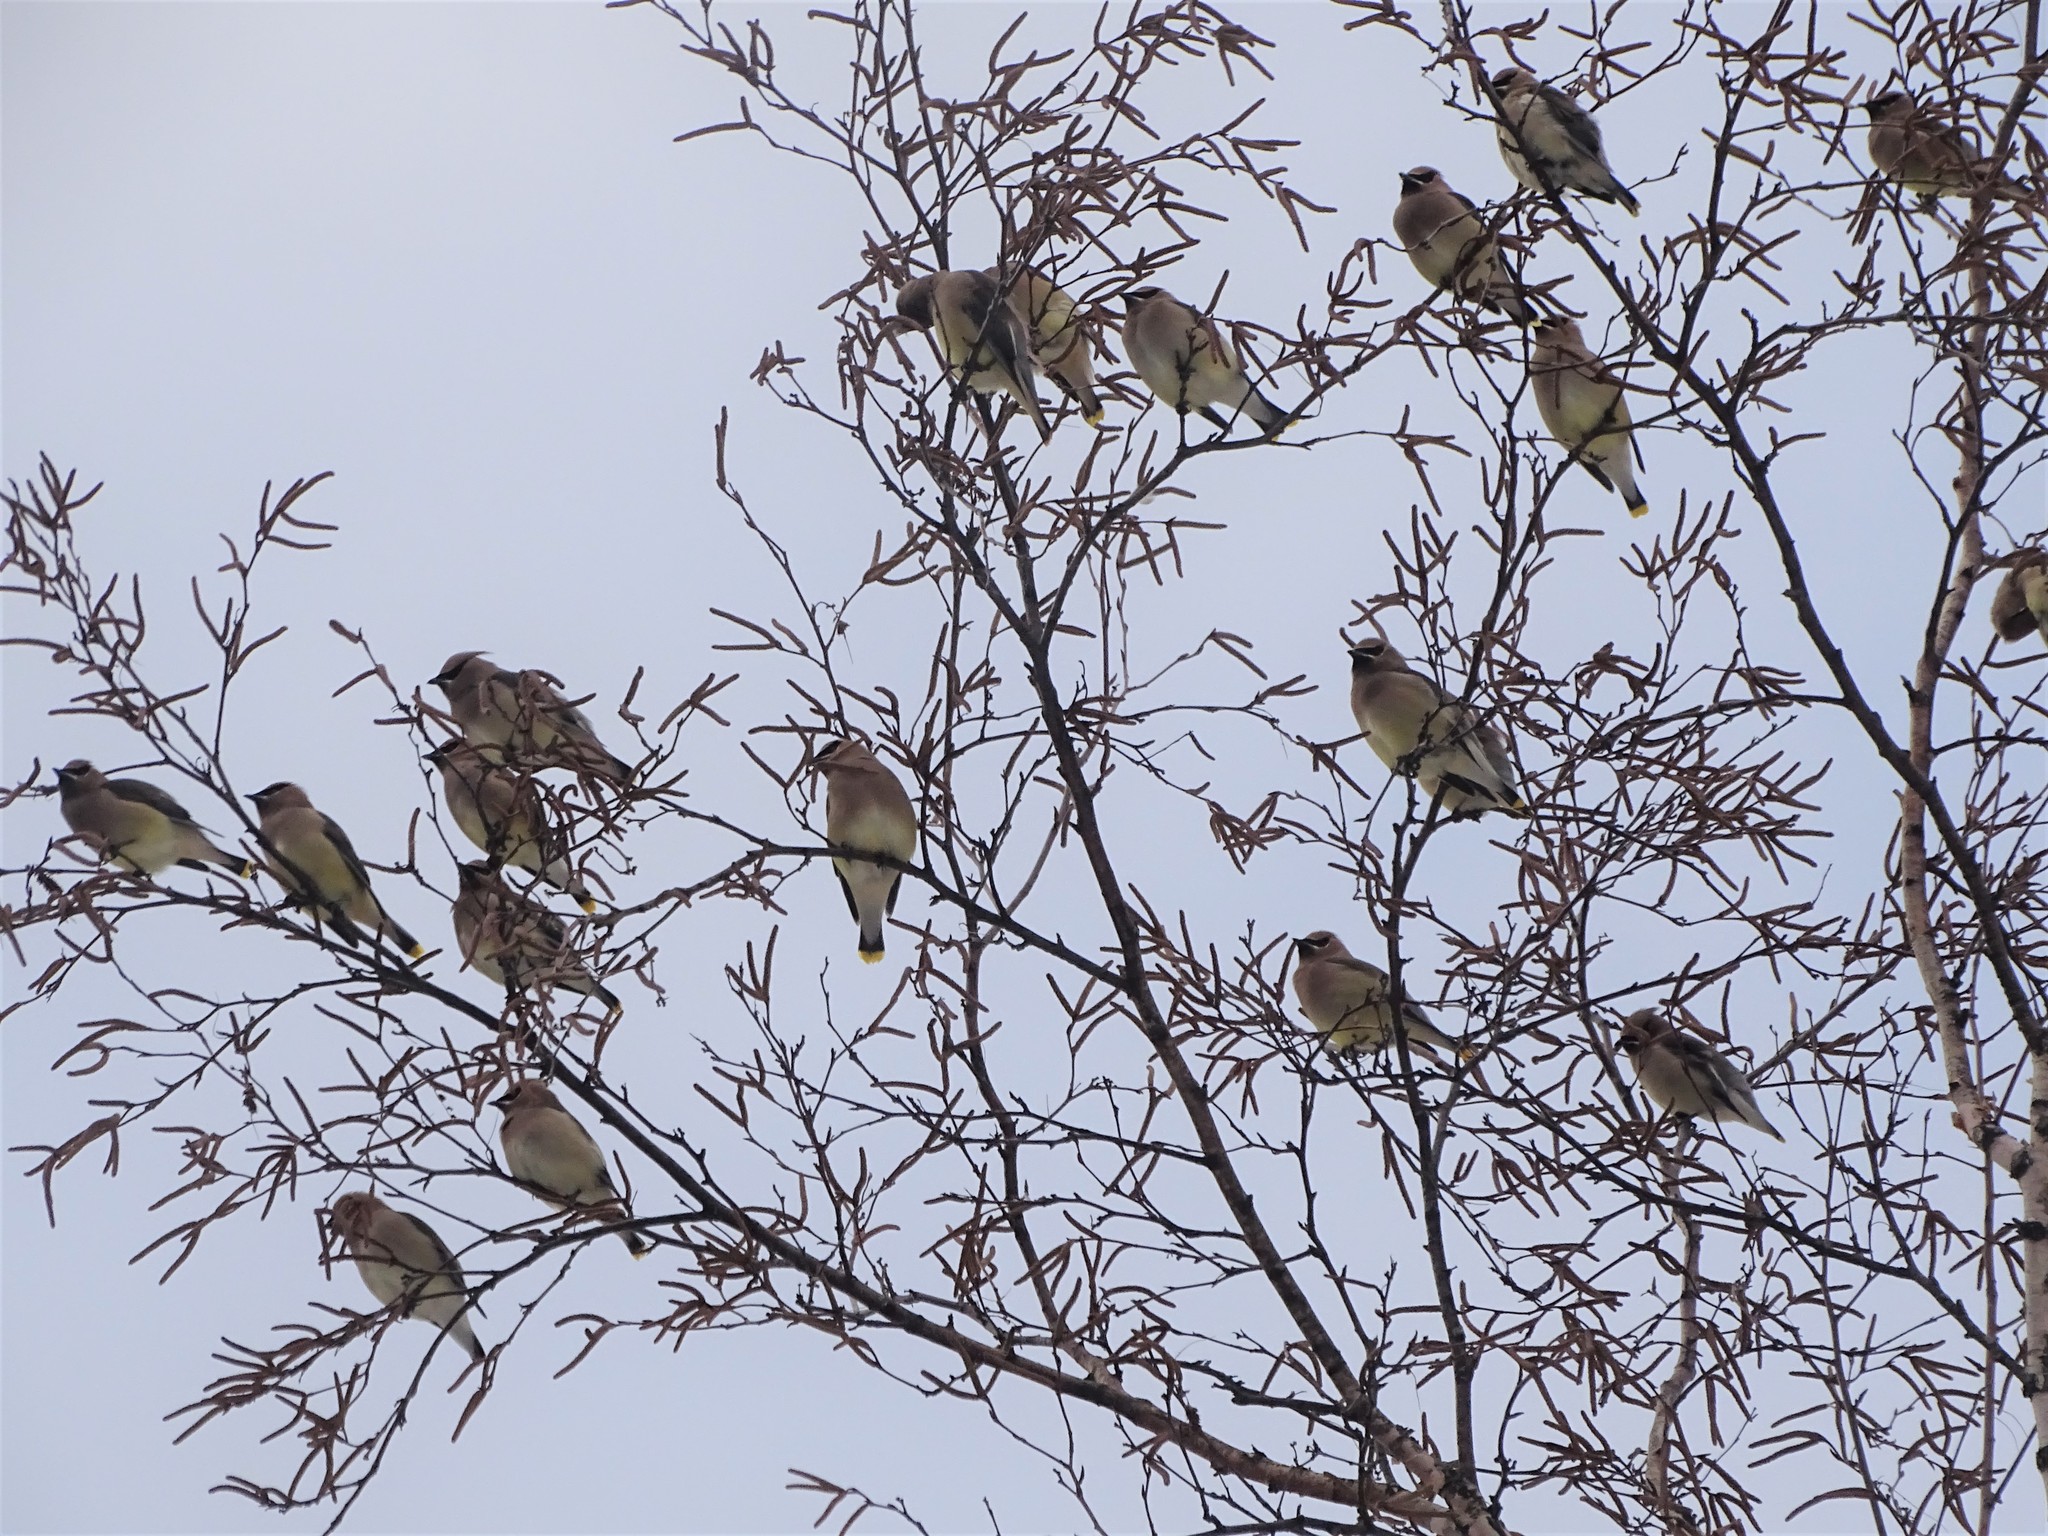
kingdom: Animalia
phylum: Chordata
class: Aves
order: Passeriformes
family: Bombycillidae
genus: Bombycilla
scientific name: Bombycilla cedrorum
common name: Cedar waxwing
